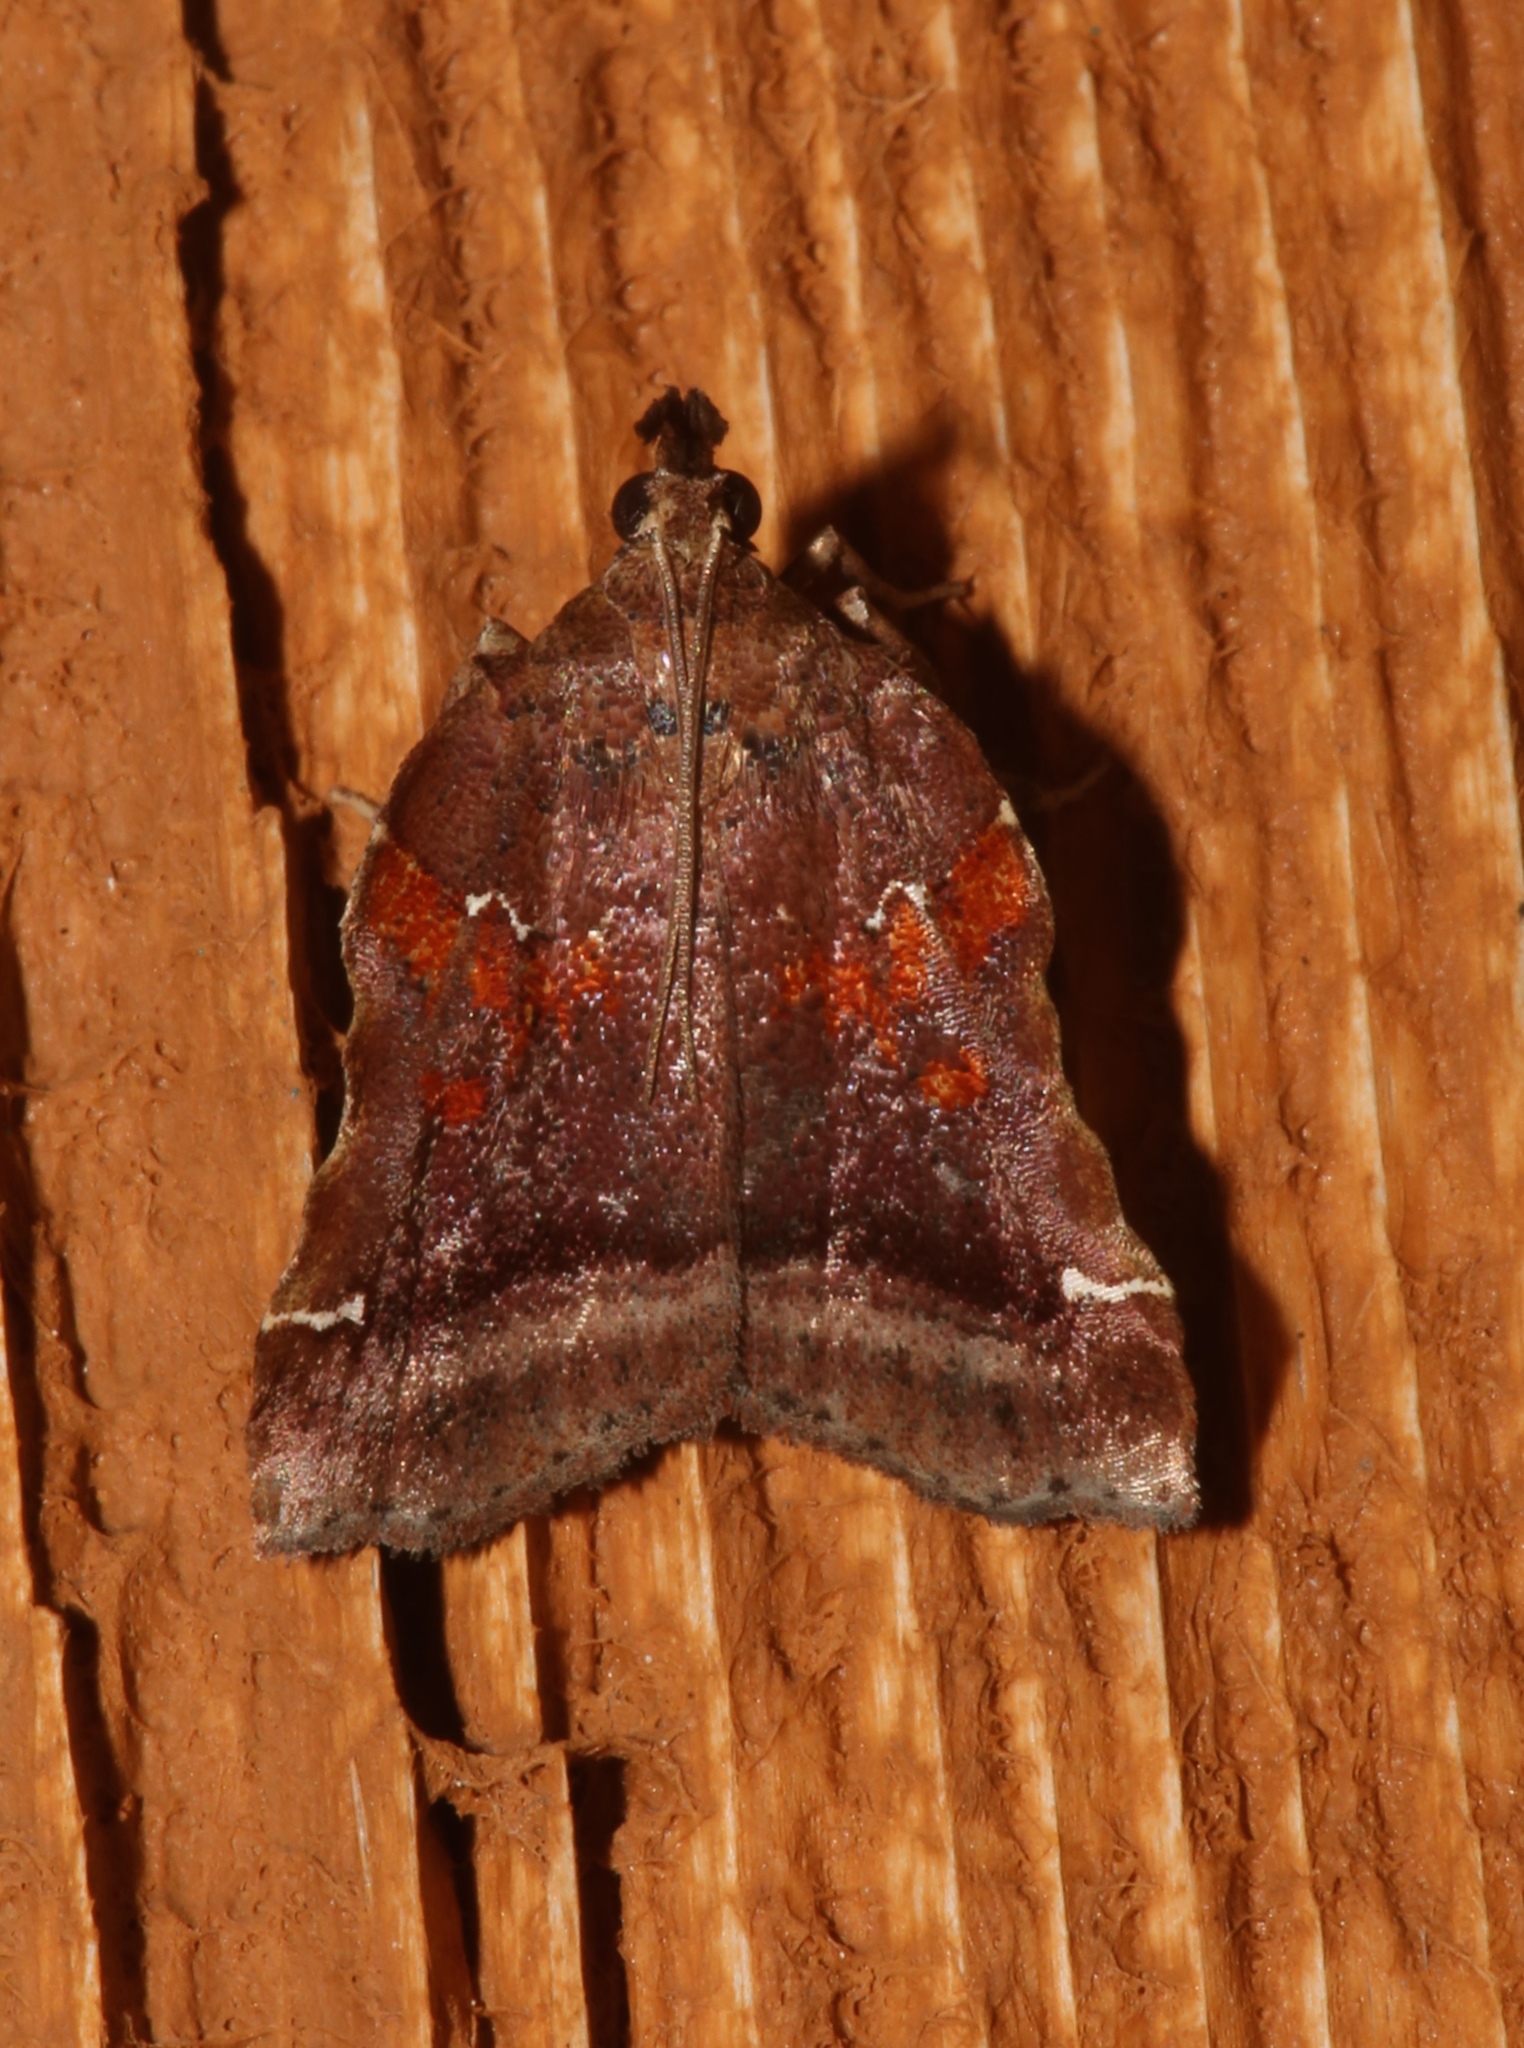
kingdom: Animalia
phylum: Arthropoda
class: Insecta
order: Lepidoptera
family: Pyralidae
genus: Clydonopteron
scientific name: Clydonopteron sacculana
